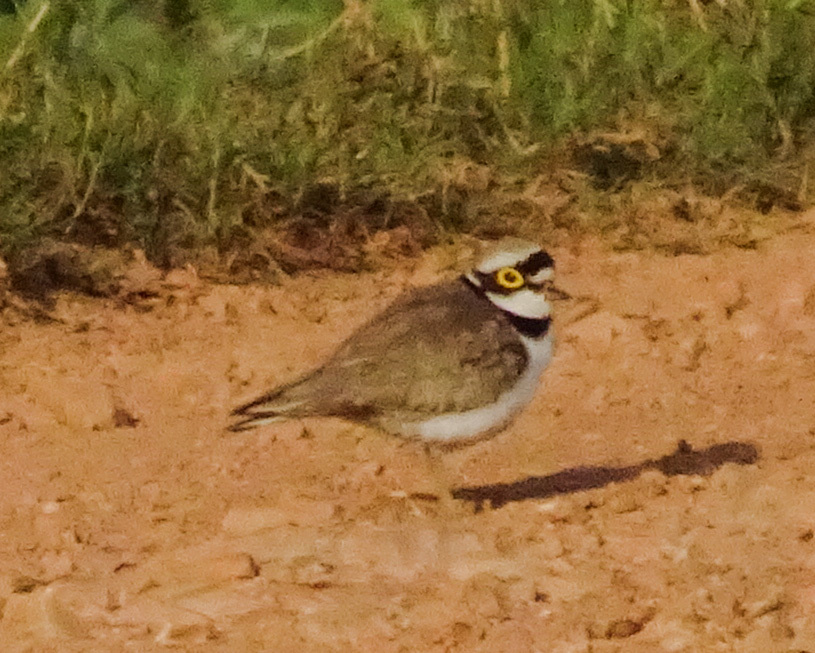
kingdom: Animalia
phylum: Chordata
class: Aves
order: Charadriiformes
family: Charadriidae
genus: Charadrius
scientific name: Charadrius dubius
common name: Little ringed plover
